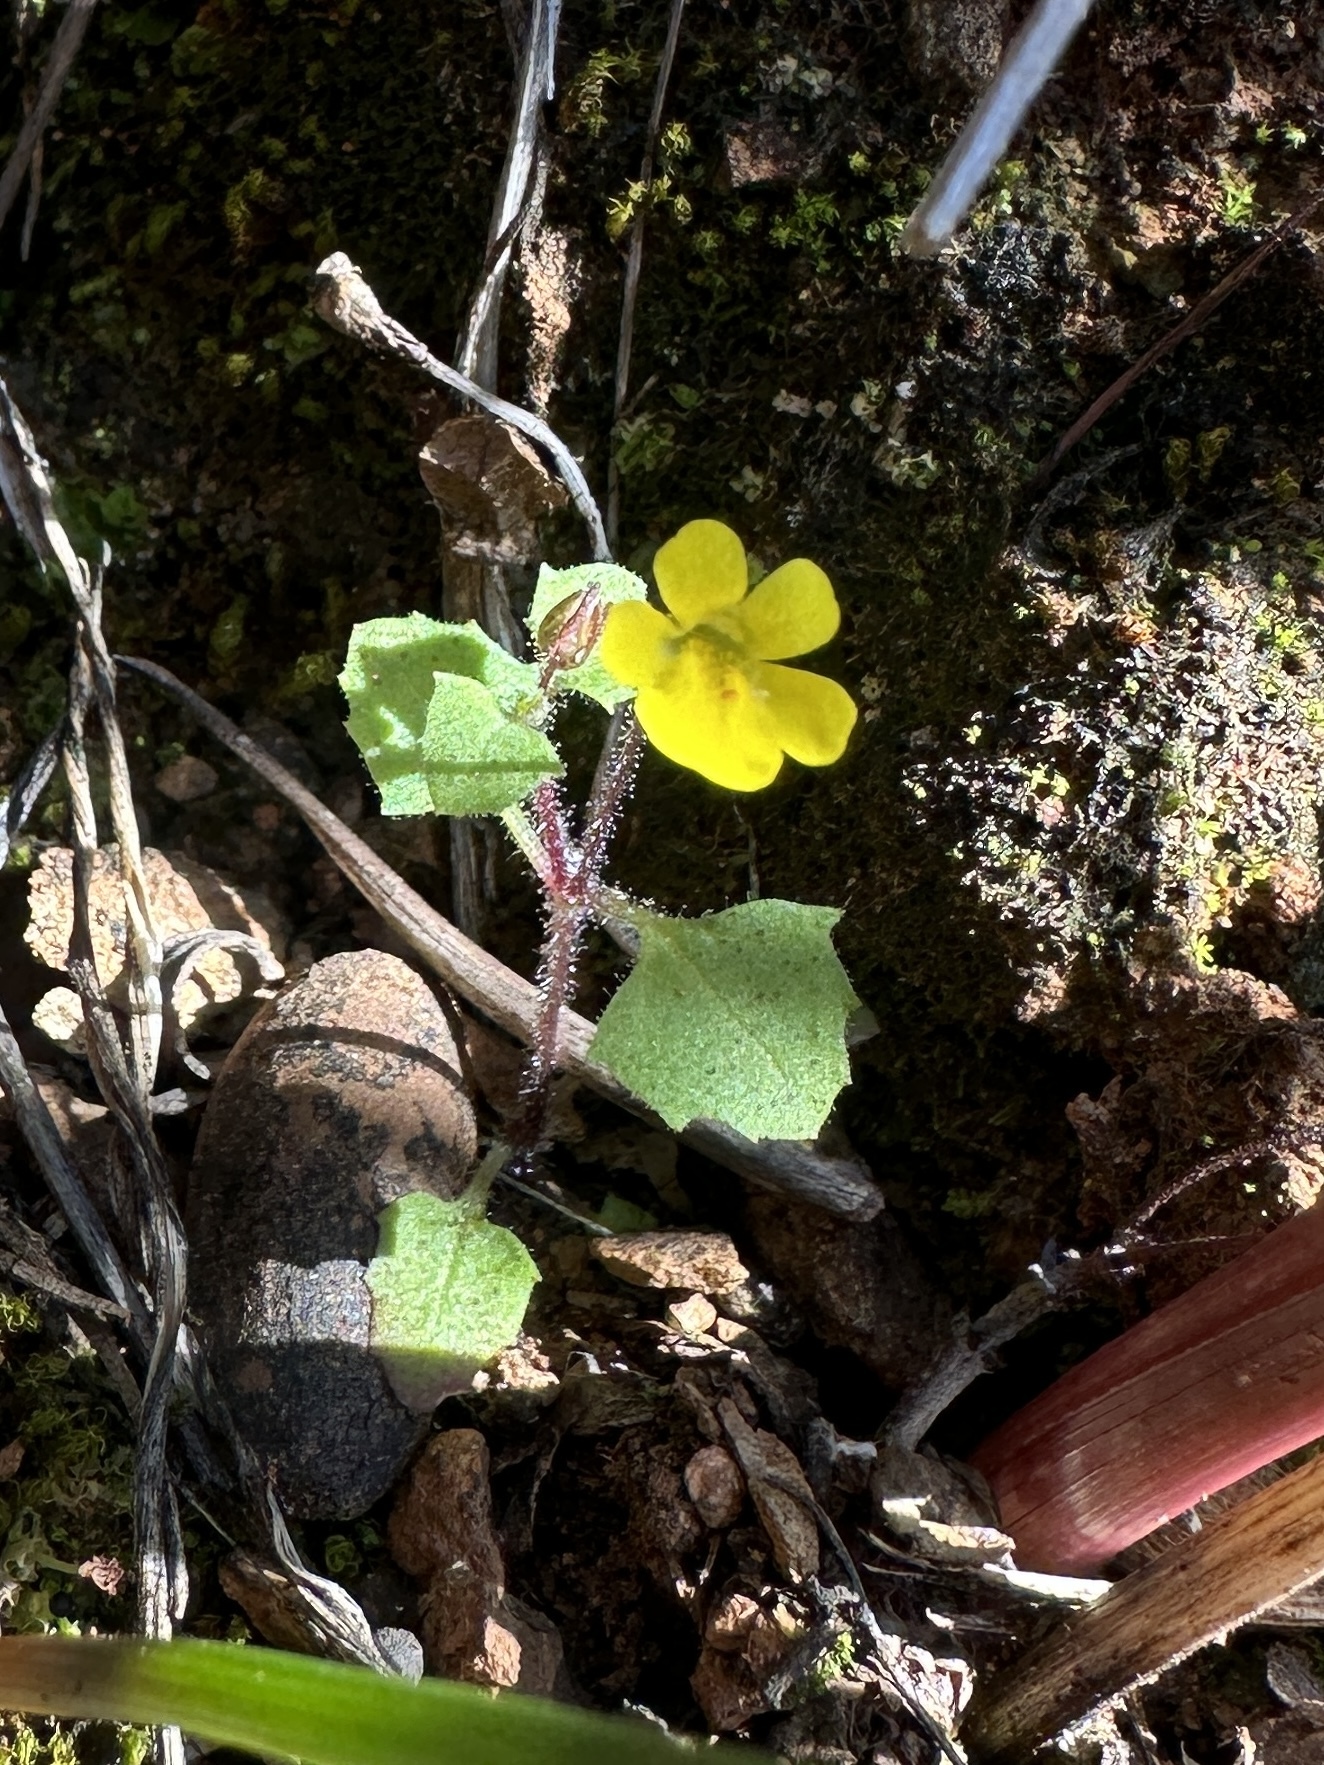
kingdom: Plantae
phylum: Tracheophyta
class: Magnoliopsida
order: Lamiales
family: Phrymaceae
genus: Erythranthe
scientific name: Erythranthe pardalis
